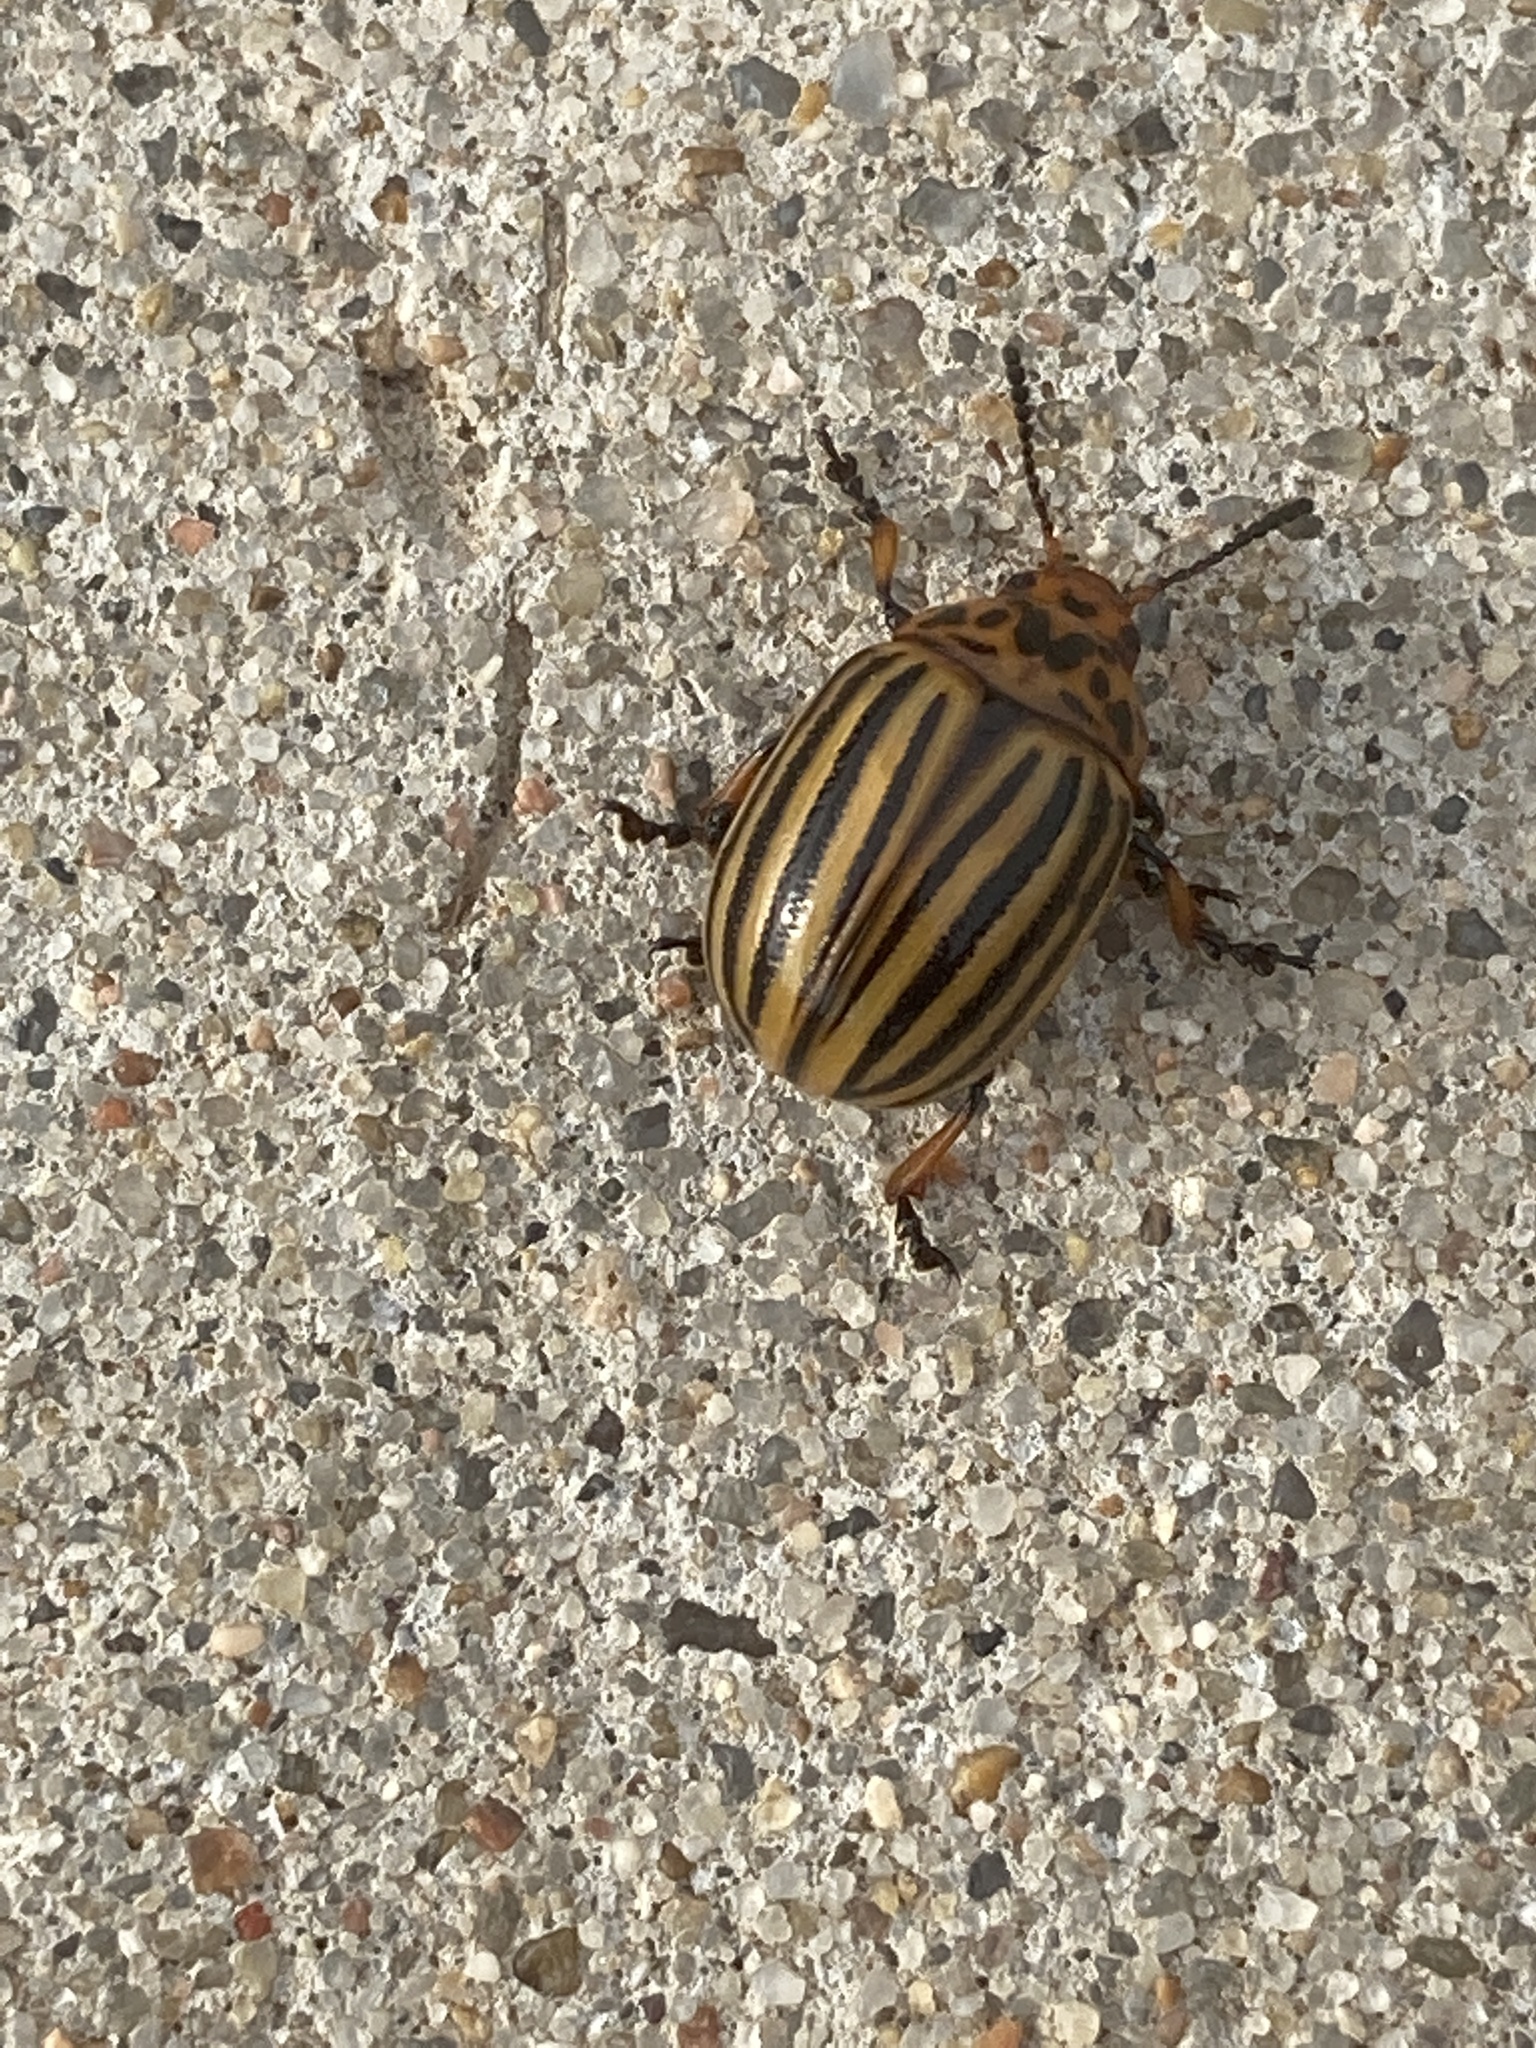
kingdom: Animalia
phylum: Arthropoda
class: Insecta
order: Coleoptera
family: Chrysomelidae
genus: Leptinotarsa
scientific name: Leptinotarsa decemlineata
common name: Colorado potato beetle
